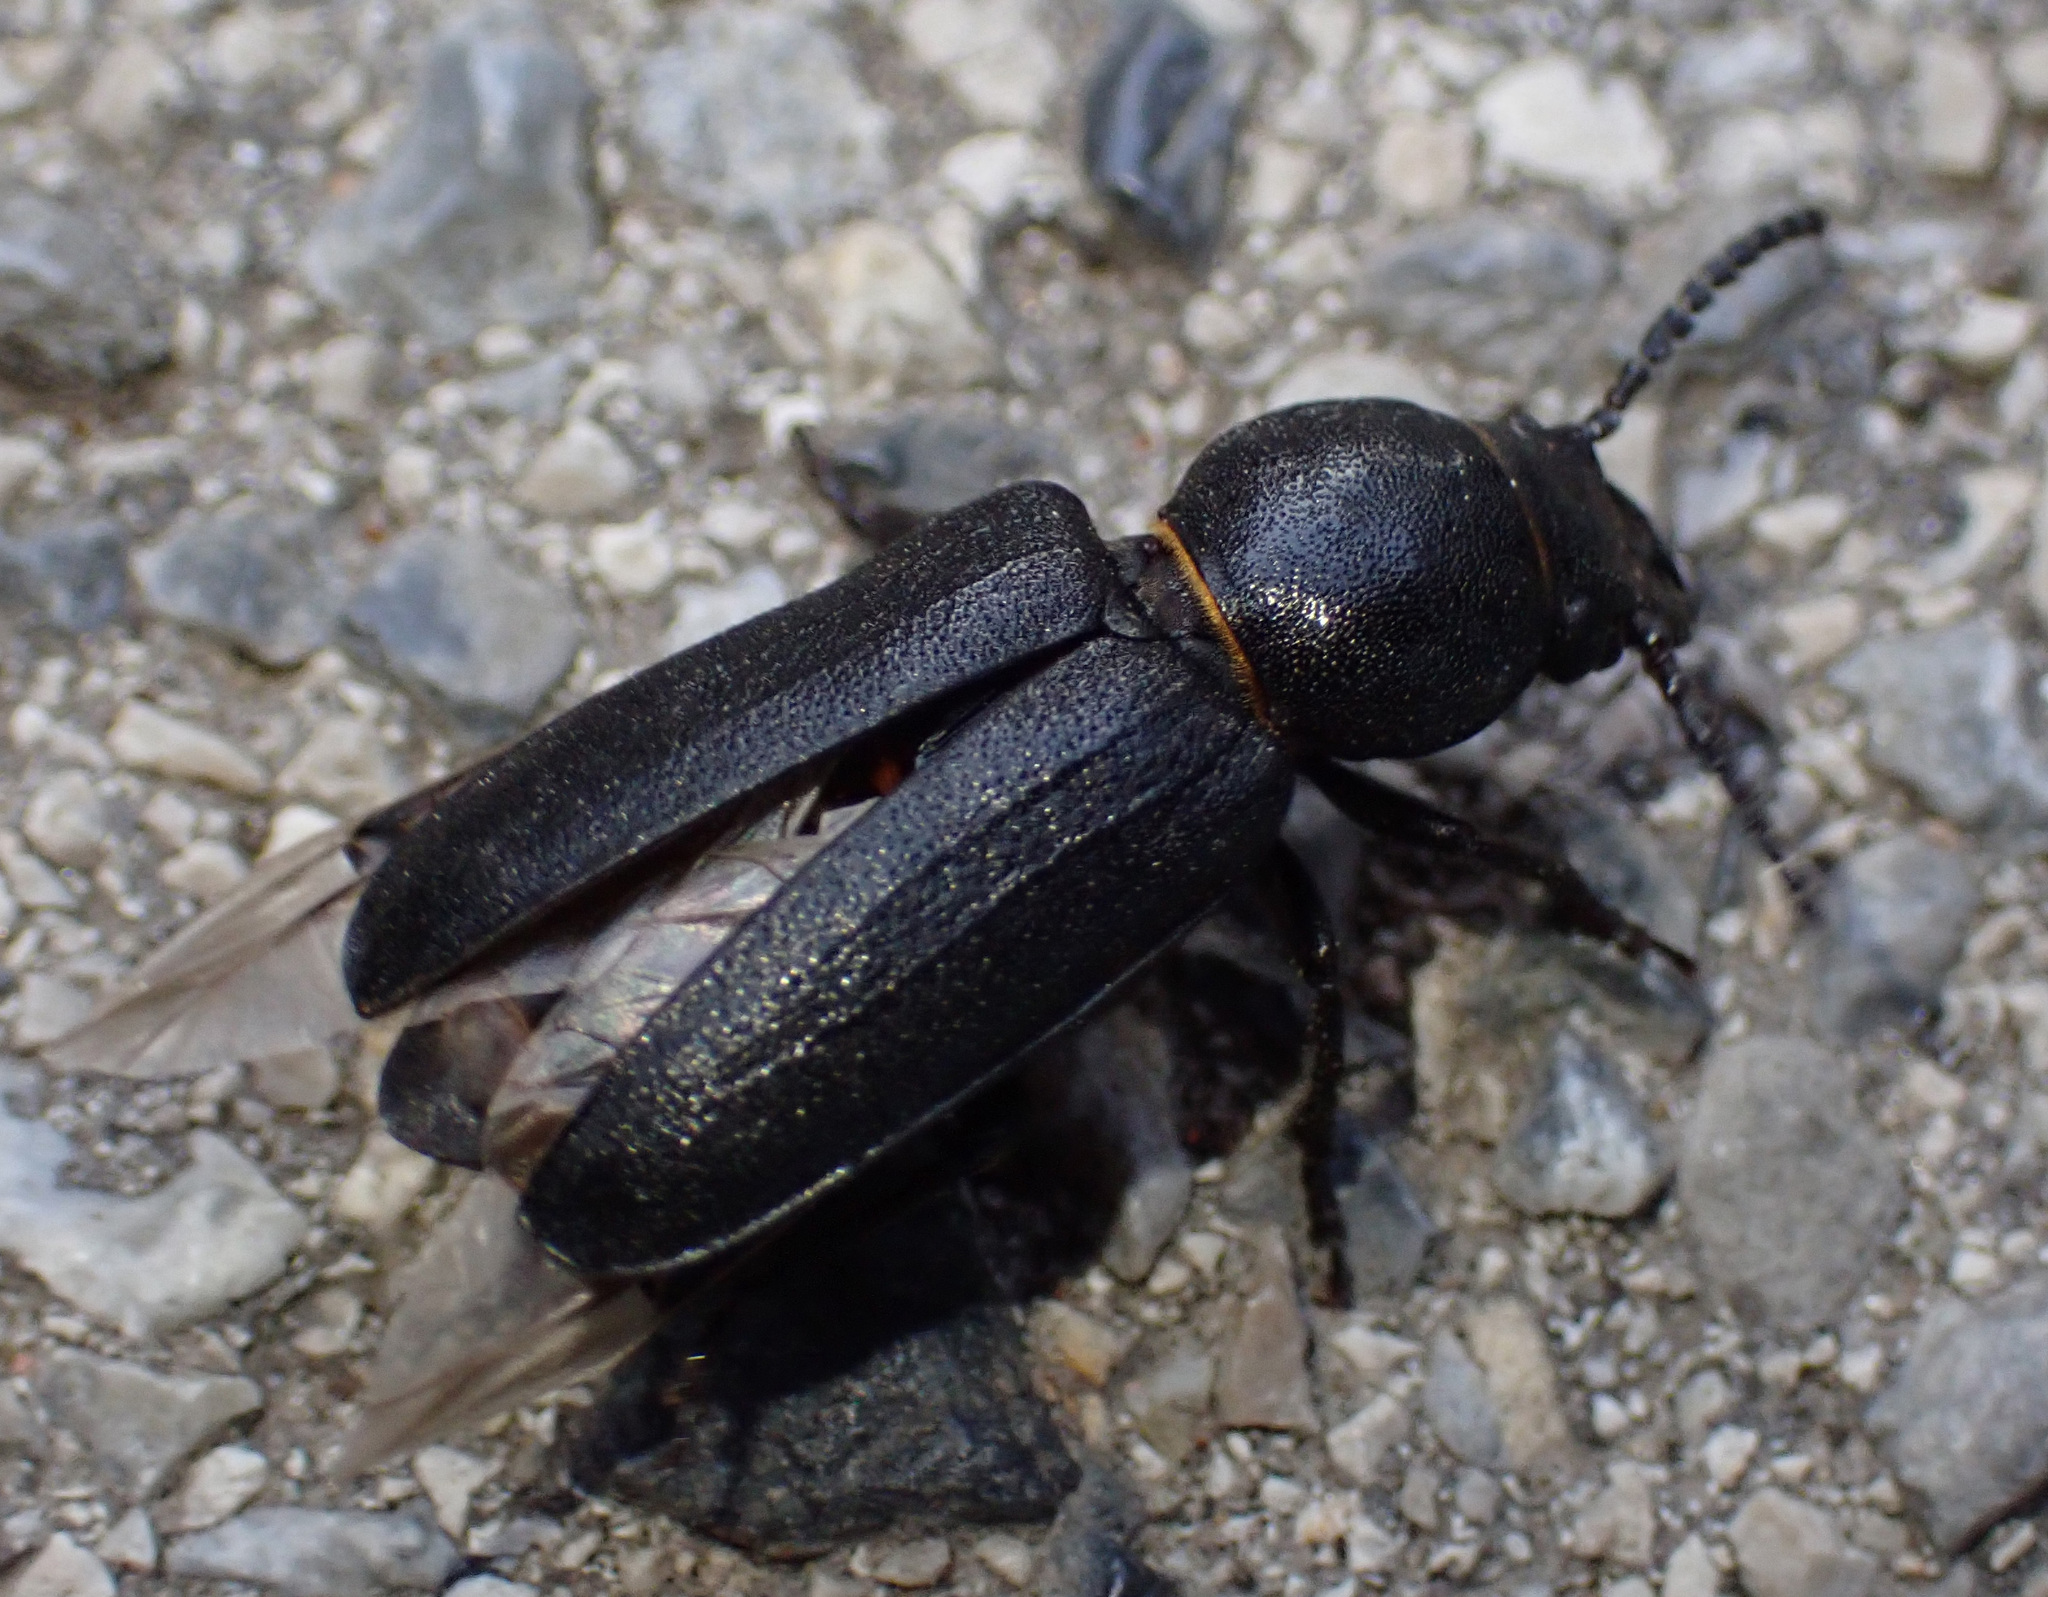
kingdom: Animalia
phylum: Arthropoda
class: Insecta
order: Coleoptera
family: Cerambycidae
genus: Spondylis
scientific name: Spondylis buprestoides
